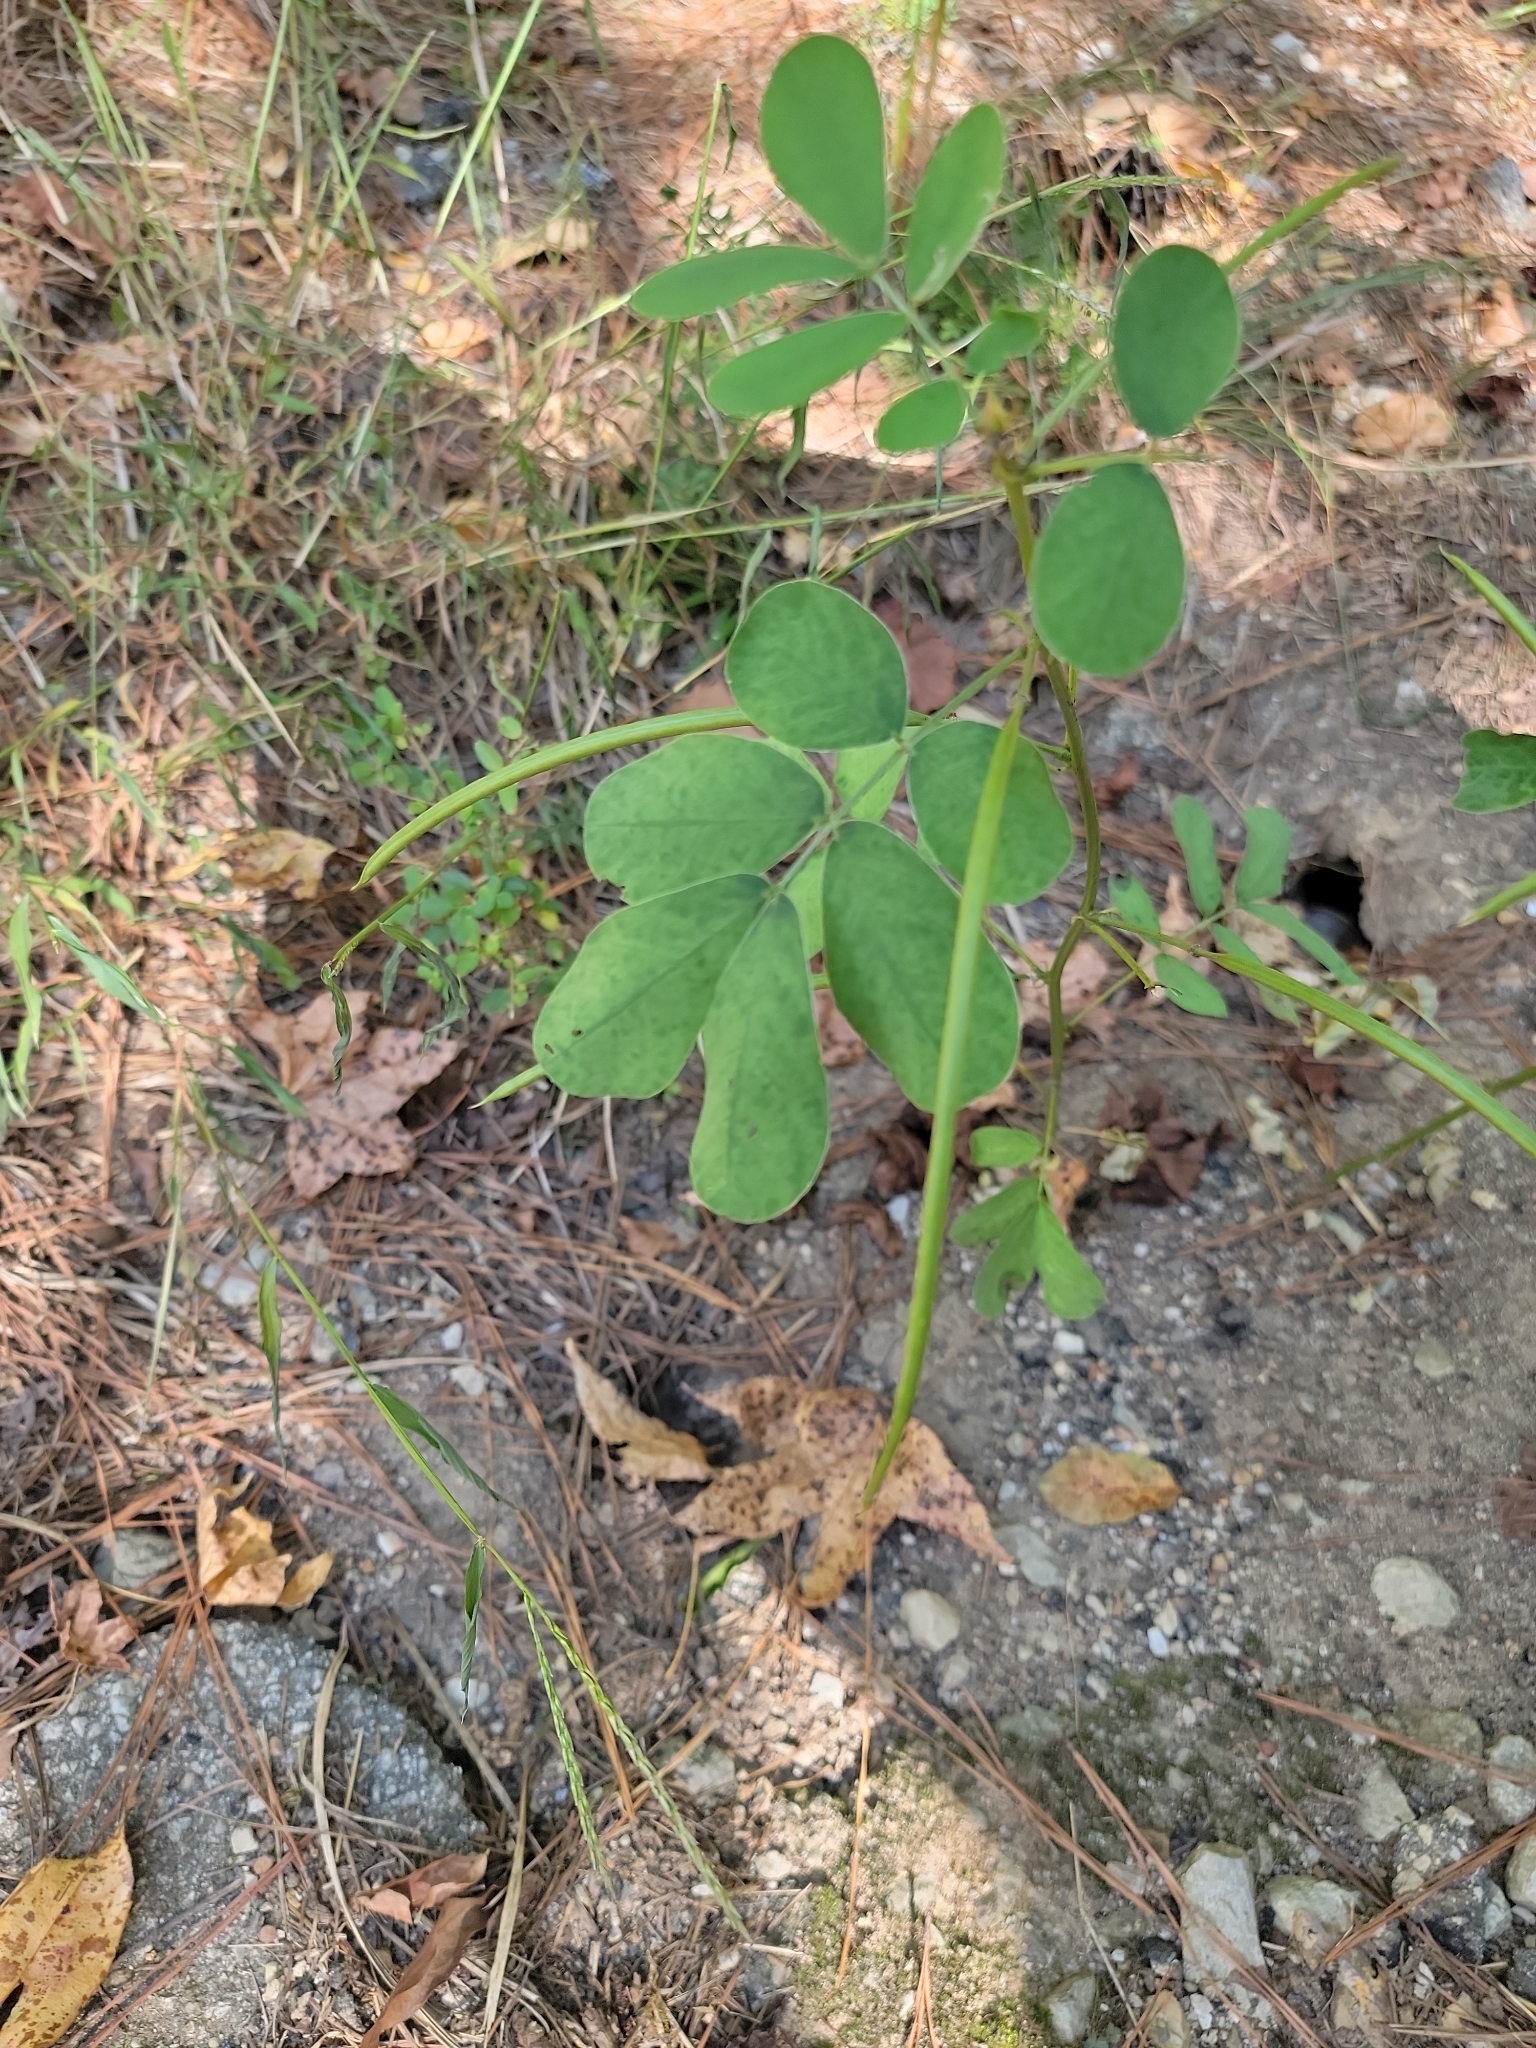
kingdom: Plantae
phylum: Tracheophyta
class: Magnoliopsida
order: Fabales
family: Fabaceae
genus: Senna
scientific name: Senna obtusifolia
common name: Java-bean
